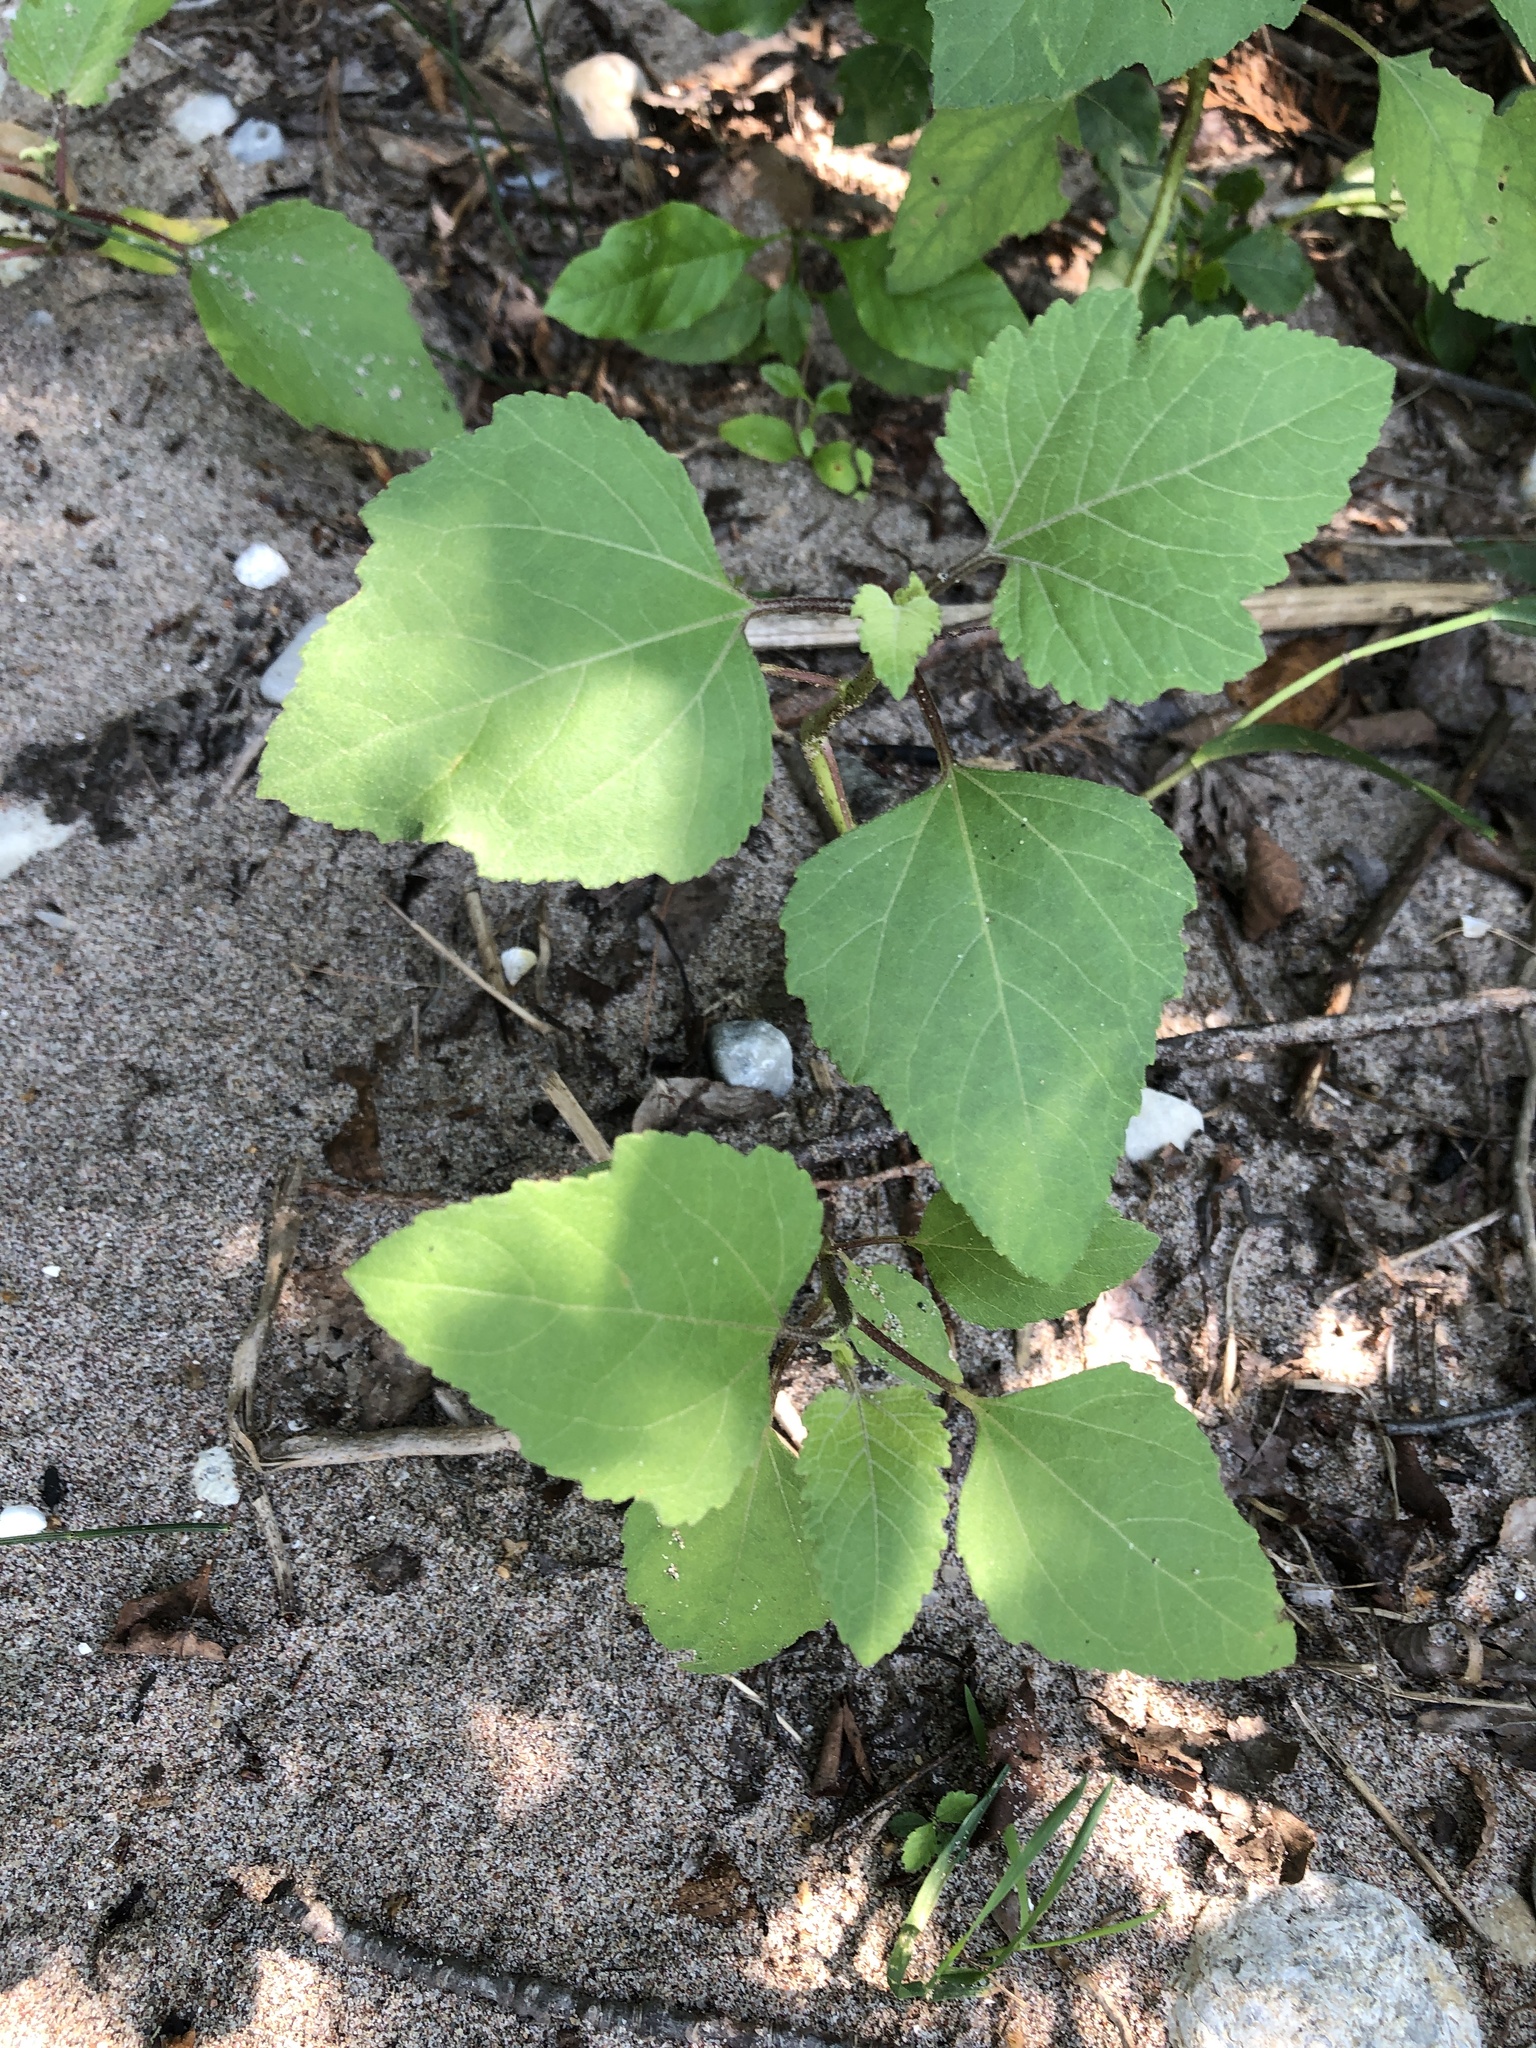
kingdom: Plantae
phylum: Tracheophyta
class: Magnoliopsida
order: Asterales
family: Asteraceae
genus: Xanthium
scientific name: Xanthium strumarium
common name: Rough cocklebur
